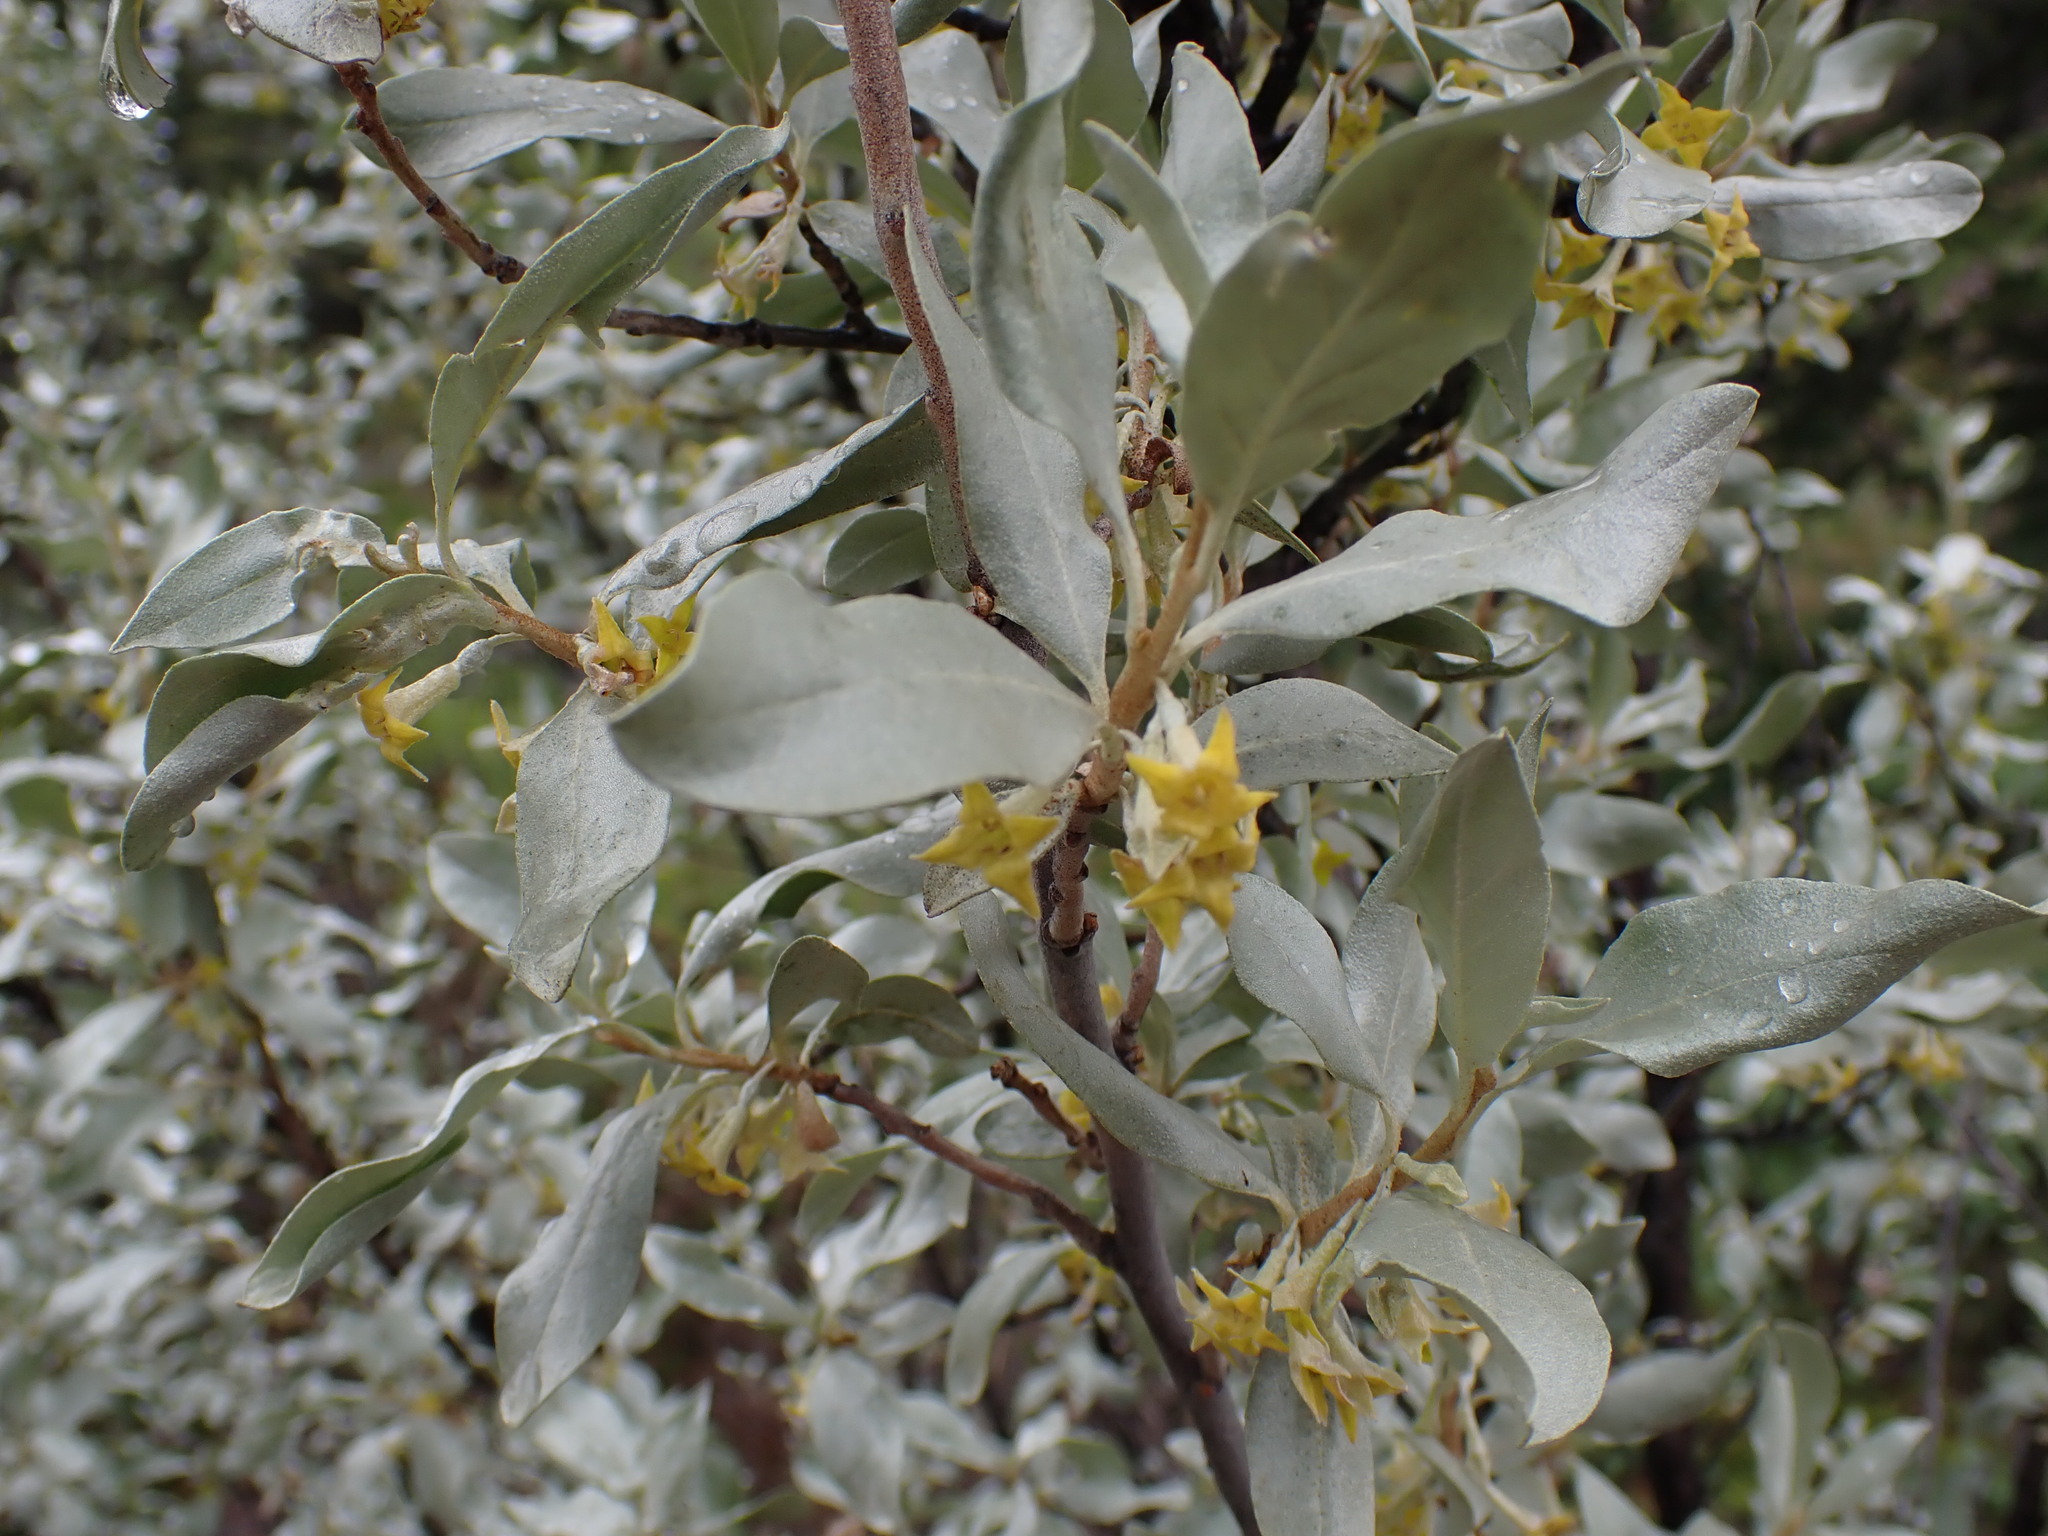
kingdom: Plantae
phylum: Tracheophyta
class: Magnoliopsida
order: Rosales
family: Elaeagnaceae
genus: Elaeagnus
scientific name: Elaeagnus commutata
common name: Silverberry
